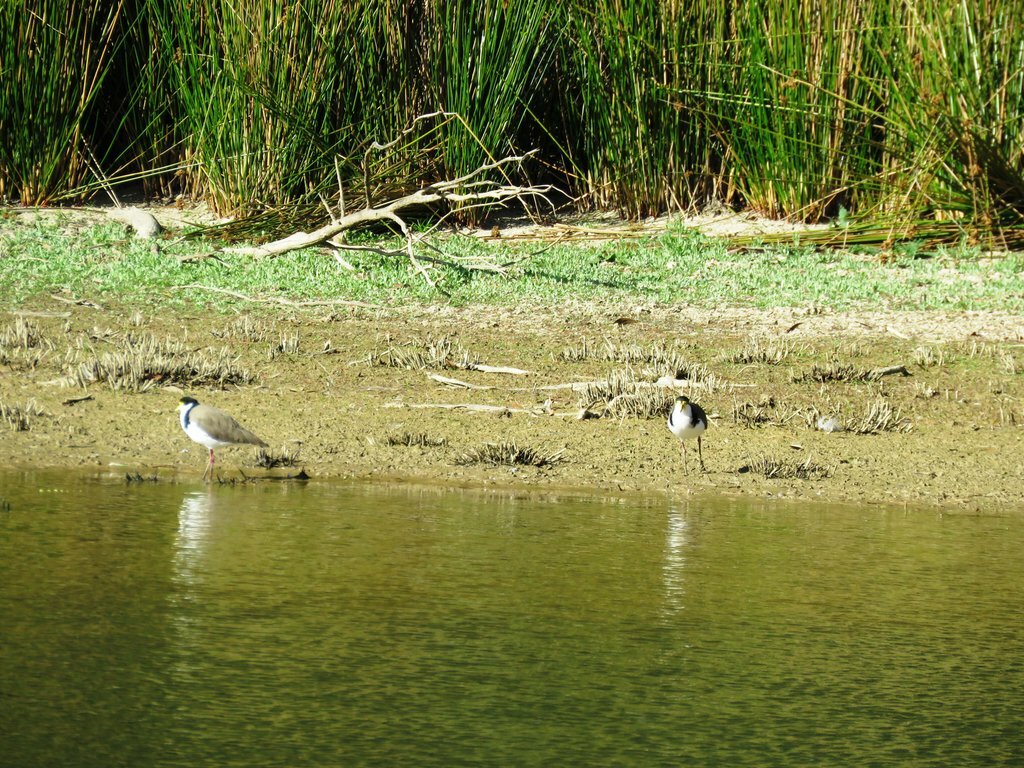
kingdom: Animalia
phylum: Chordata
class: Aves
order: Charadriiformes
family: Charadriidae
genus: Vanellus
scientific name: Vanellus miles
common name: Masked lapwing
